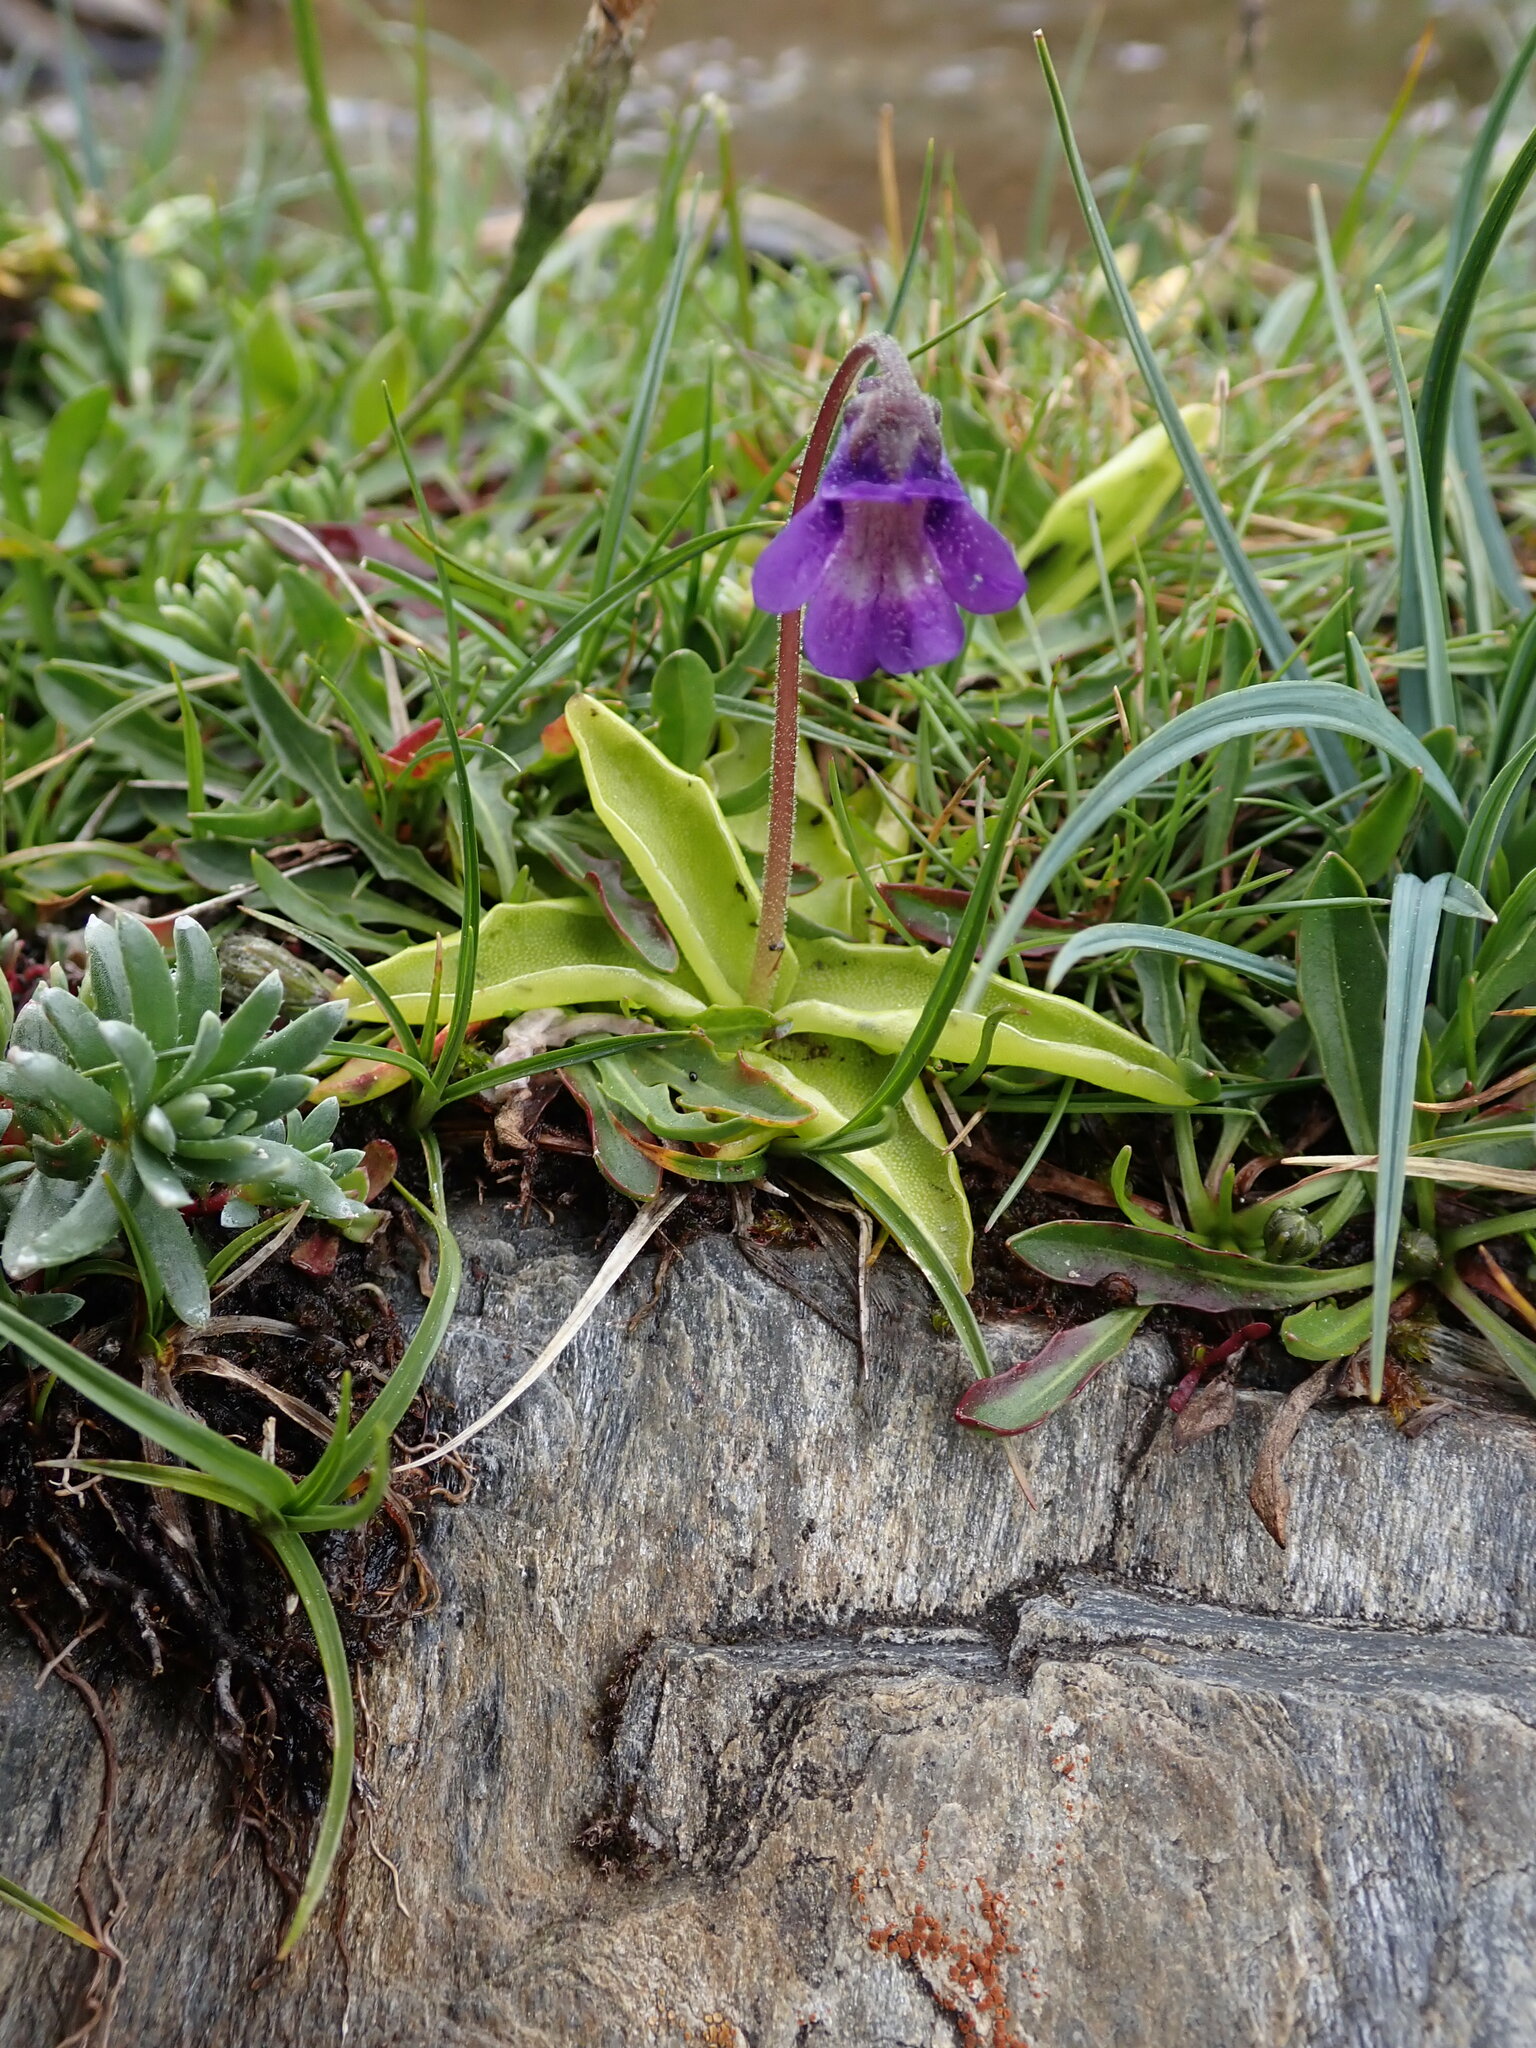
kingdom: Plantae
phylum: Tracheophyta
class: Magnoliopsida
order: Lamiales
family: Lentibulariaceae
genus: Pinguicula
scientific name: Pinguicula vulgaris
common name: Common butterwort
